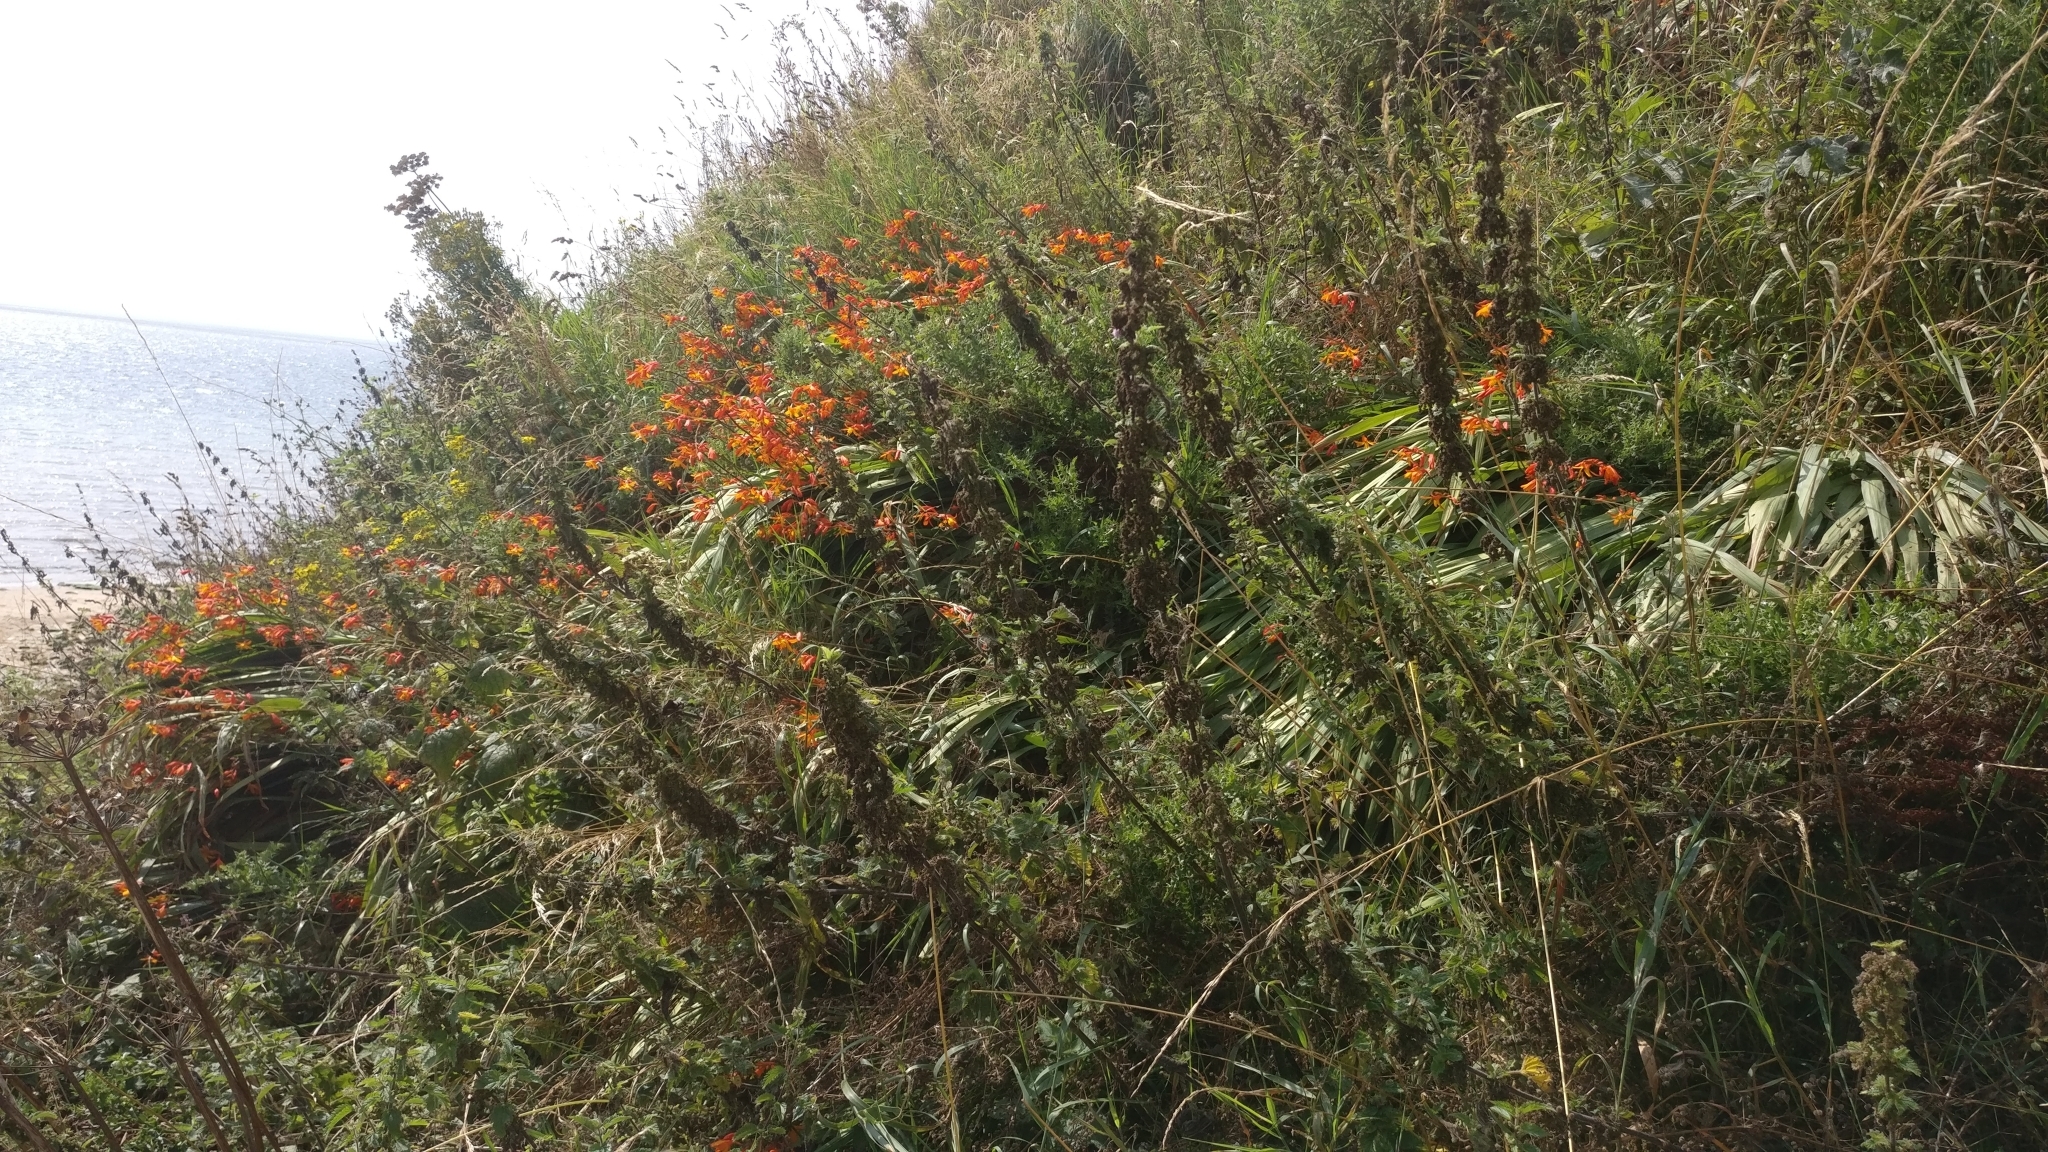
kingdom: Plantae
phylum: Tracheophyta
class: Liliopsida
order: Asparagales
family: Iridaceae
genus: Crocosmia
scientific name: Crocosmia crocosmiiflora
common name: Montbretia
